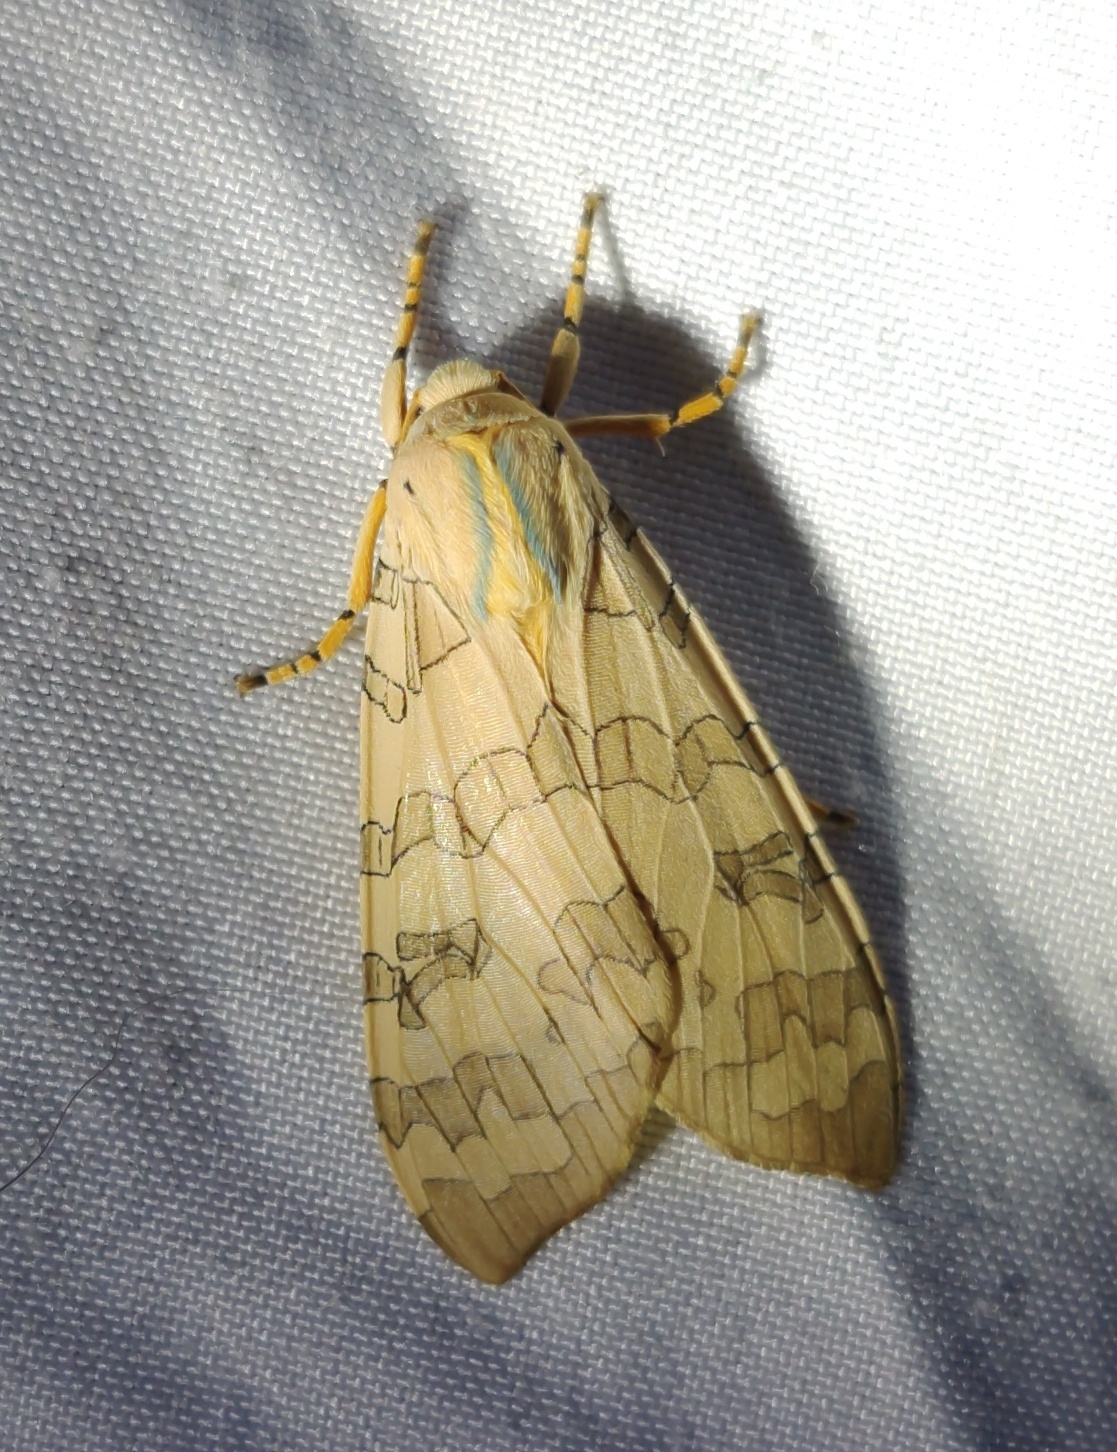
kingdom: Animalia
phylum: Arthropoda
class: Insecta
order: Lepidoptera
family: Erebidae
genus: Halysidota
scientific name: Halysidota
